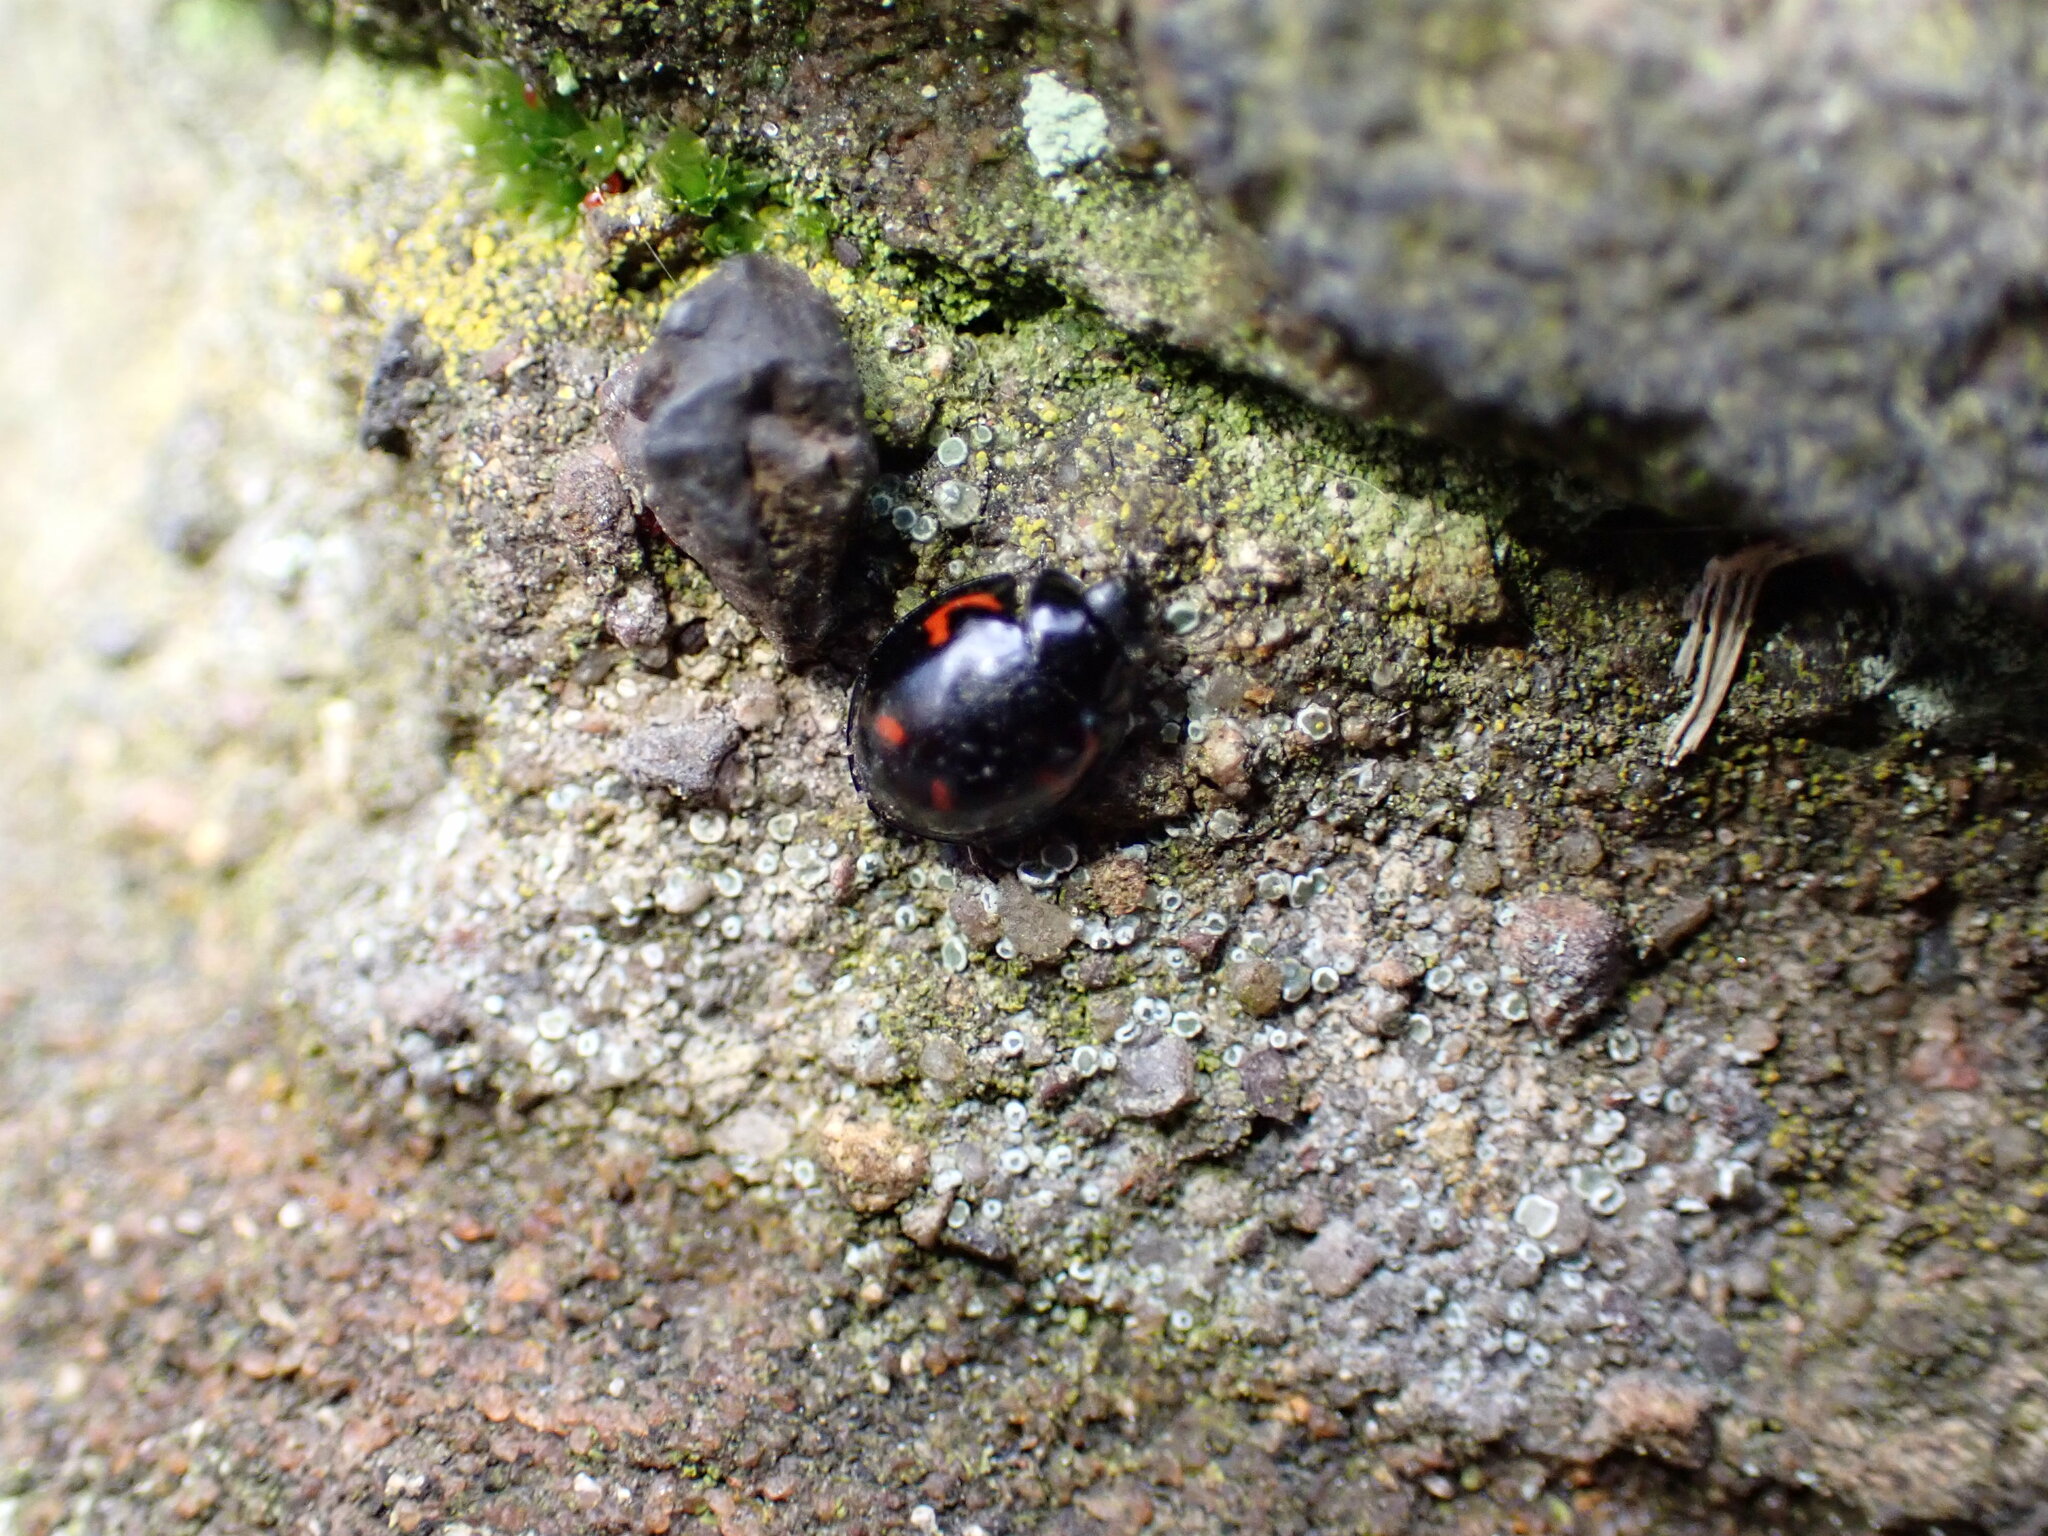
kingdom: Animalia
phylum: Arthropoda
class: Insecta
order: Coleoptera
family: Coccinellidae
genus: Brumus
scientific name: Brumus quadripustulatus
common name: Ladybird beetle
